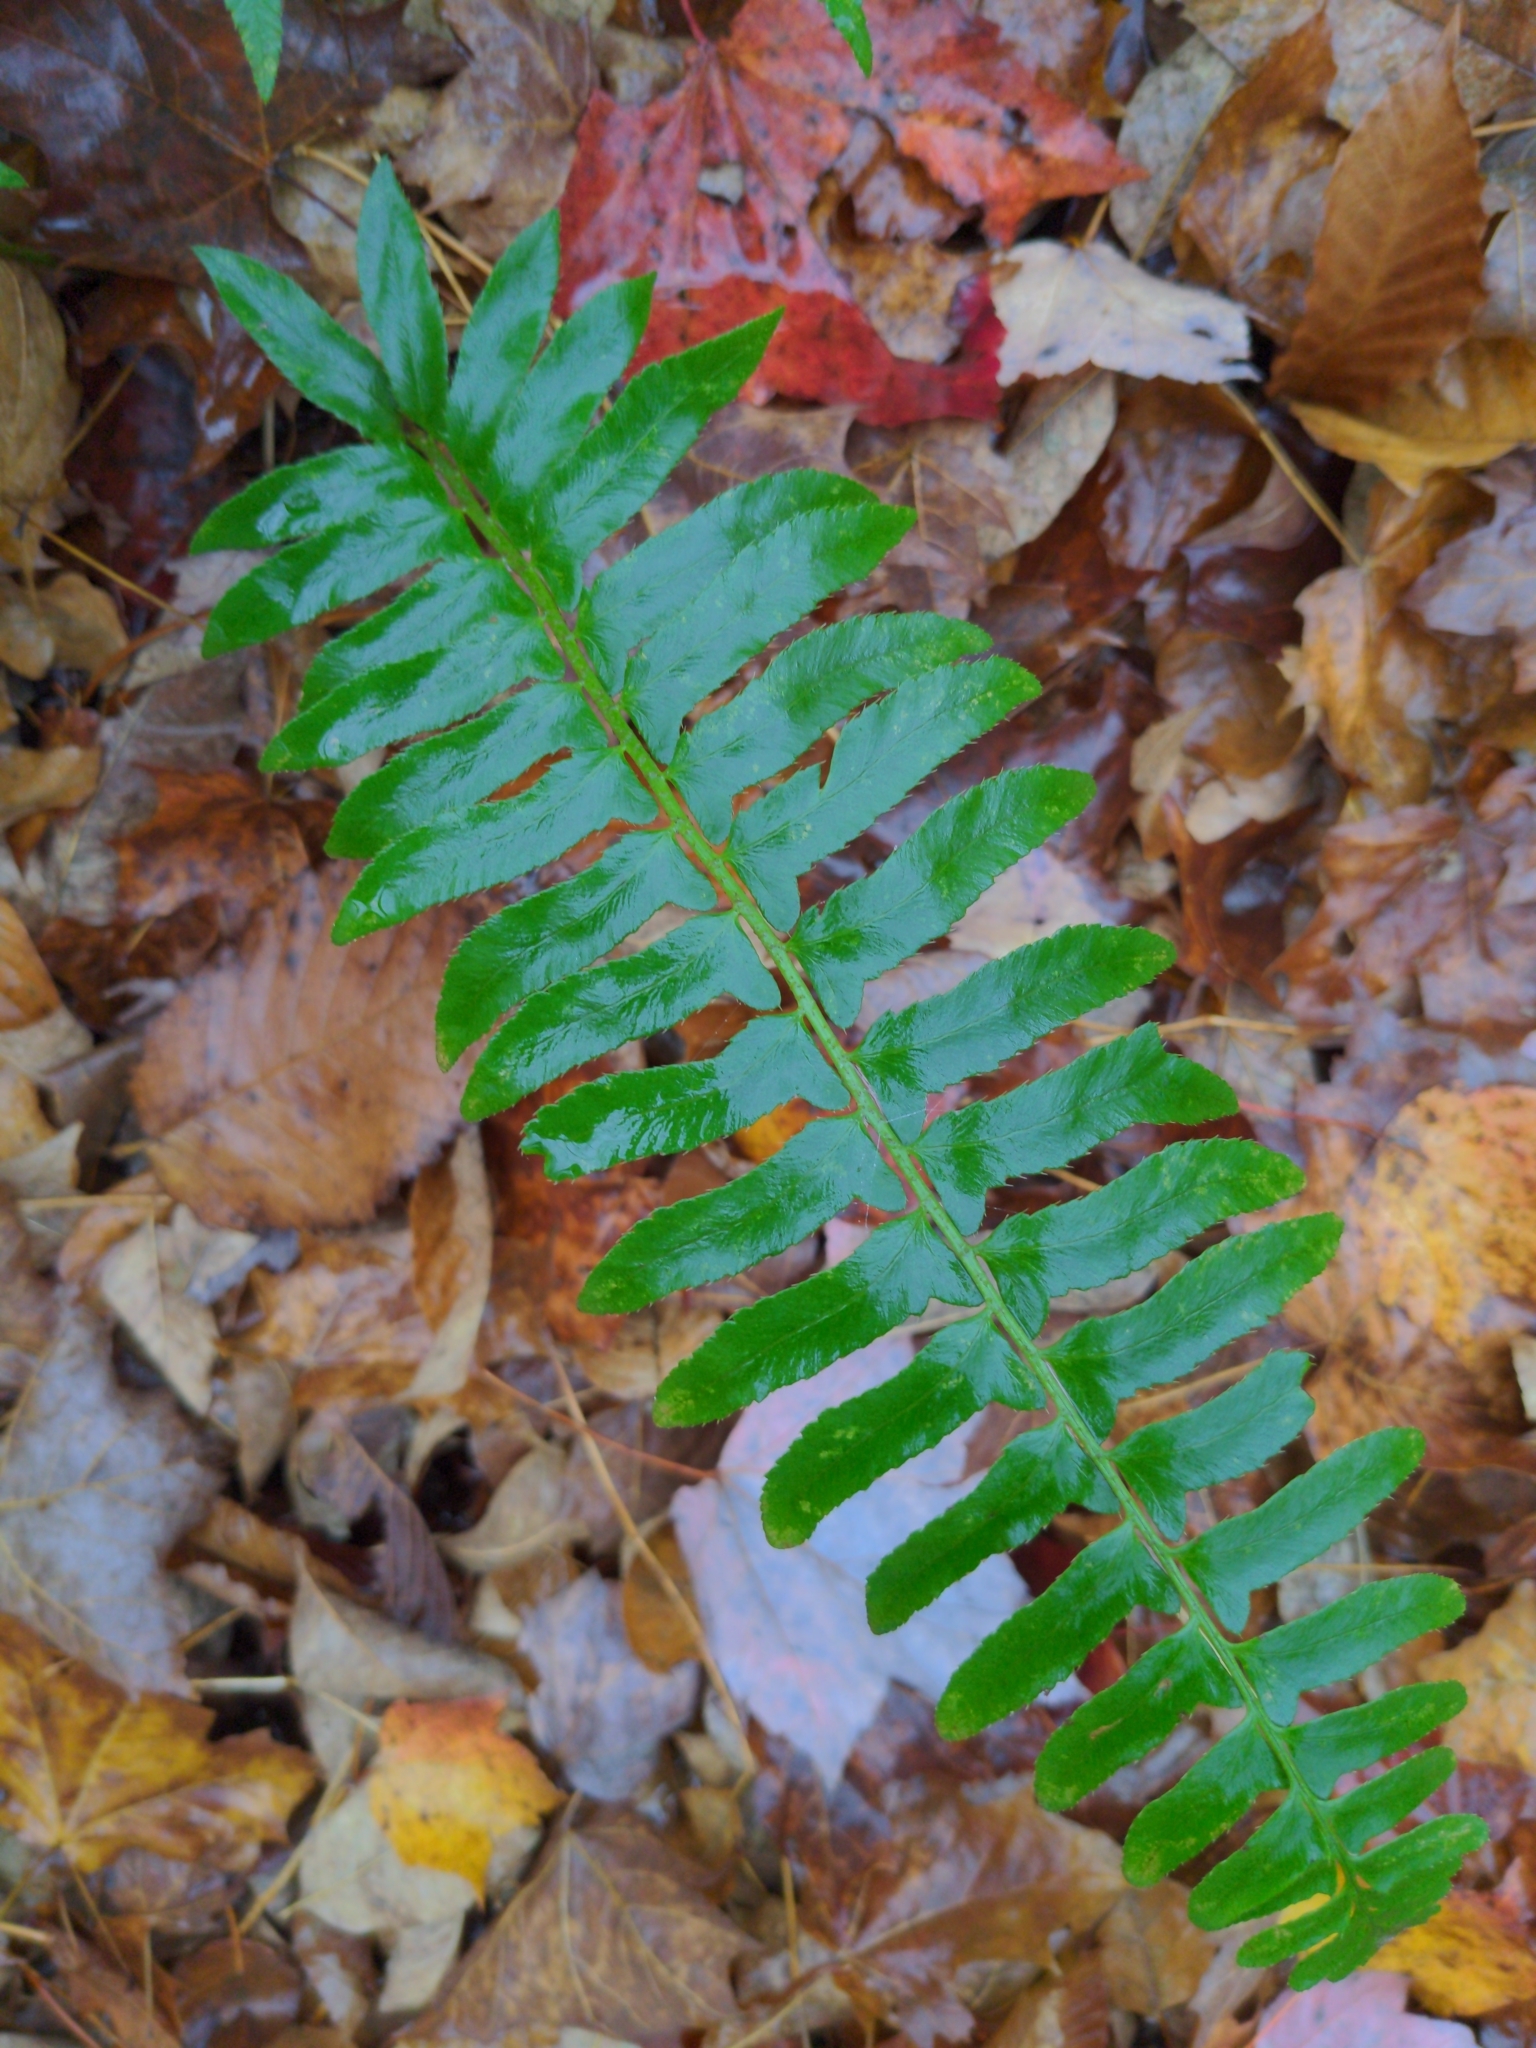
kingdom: Plantae
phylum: Tracheophyta
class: Polypodiopsida
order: Polypodiales
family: Dryopteridaceae
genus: Polystichum
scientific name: Polystichum acrostichoides
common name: Christmas fern
